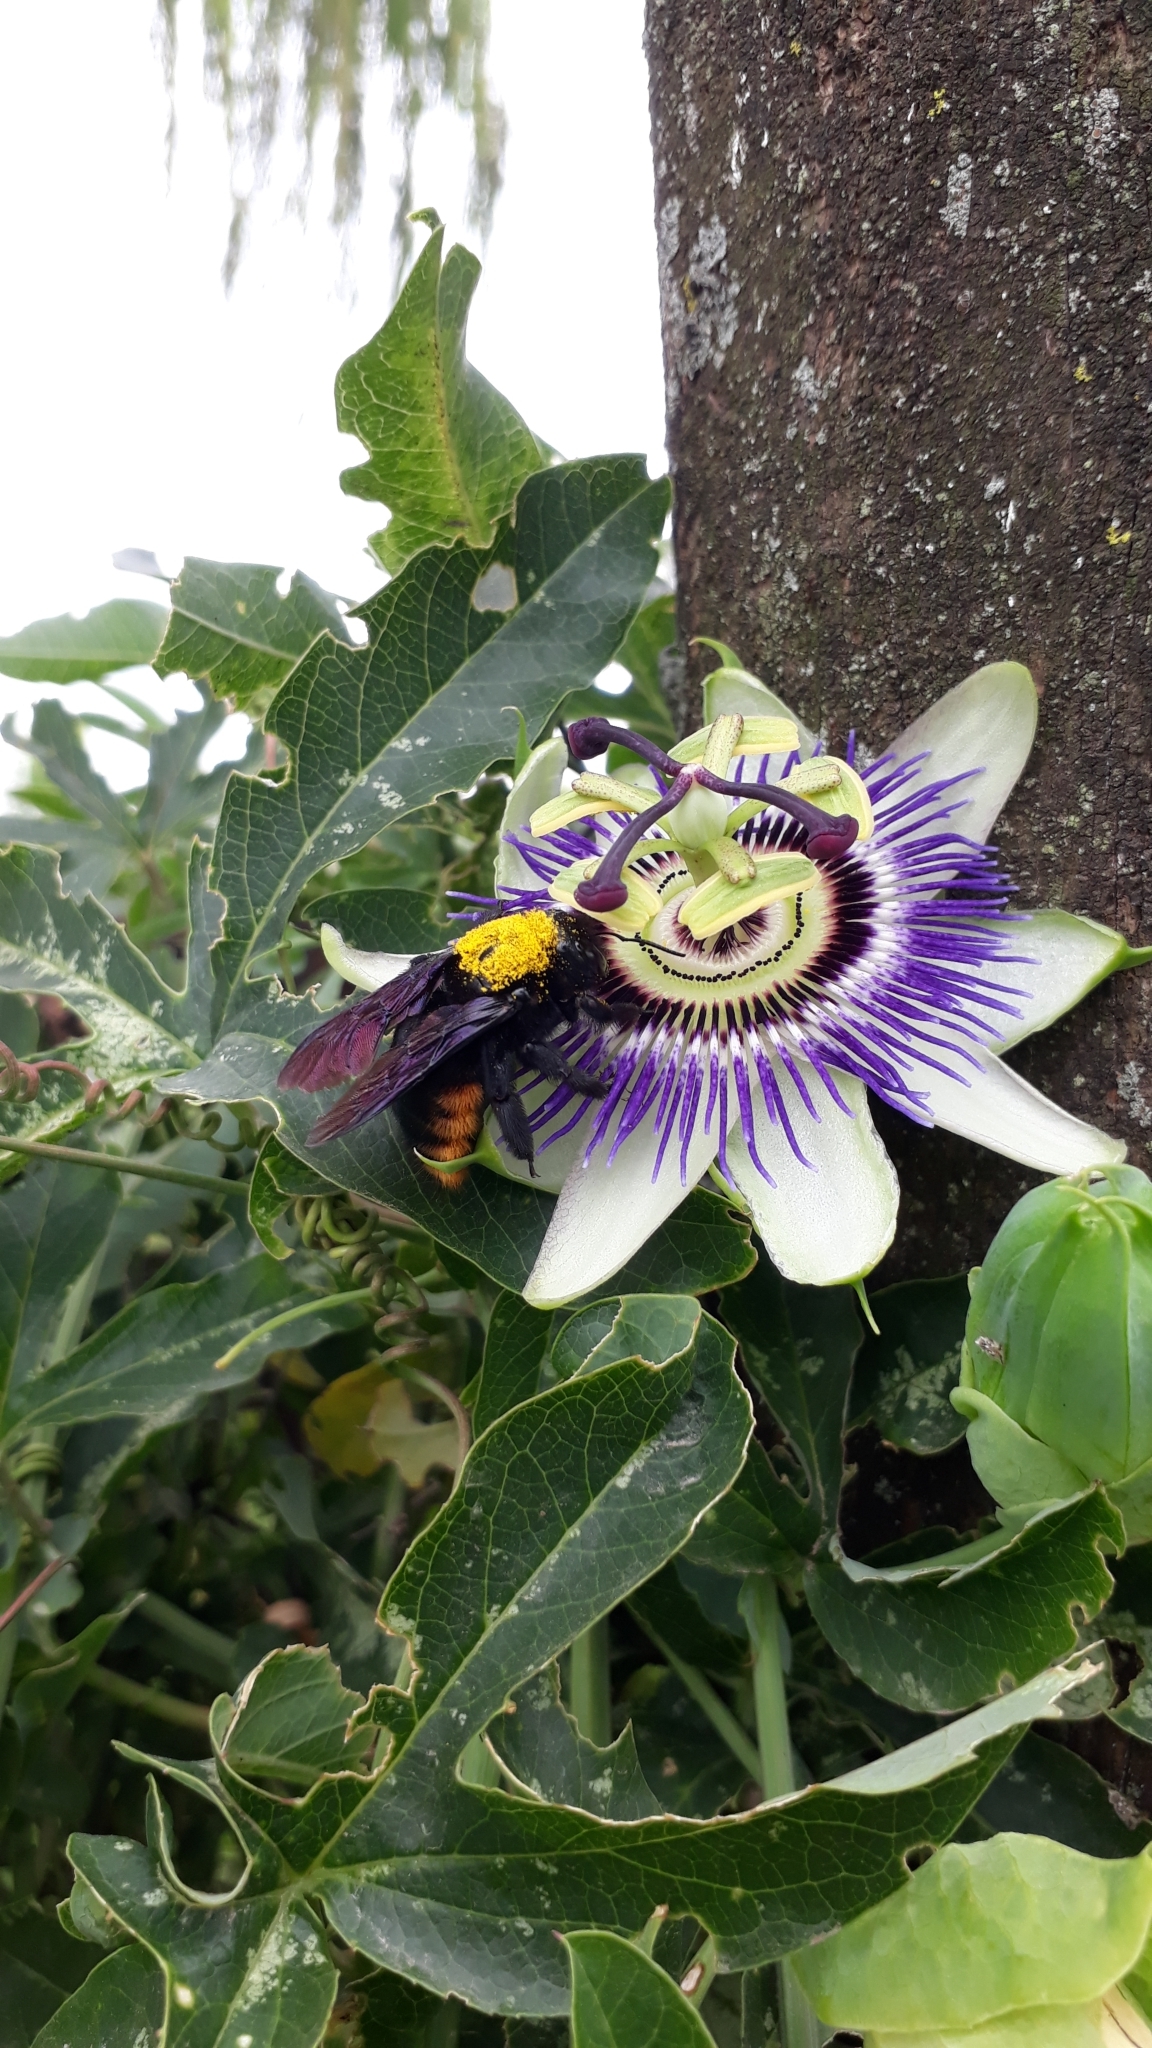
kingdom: Animalia
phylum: Arthropoda
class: Insecta
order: Hymenoptera
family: Apidae
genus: Xylocopa
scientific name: Xylocopa augusti
